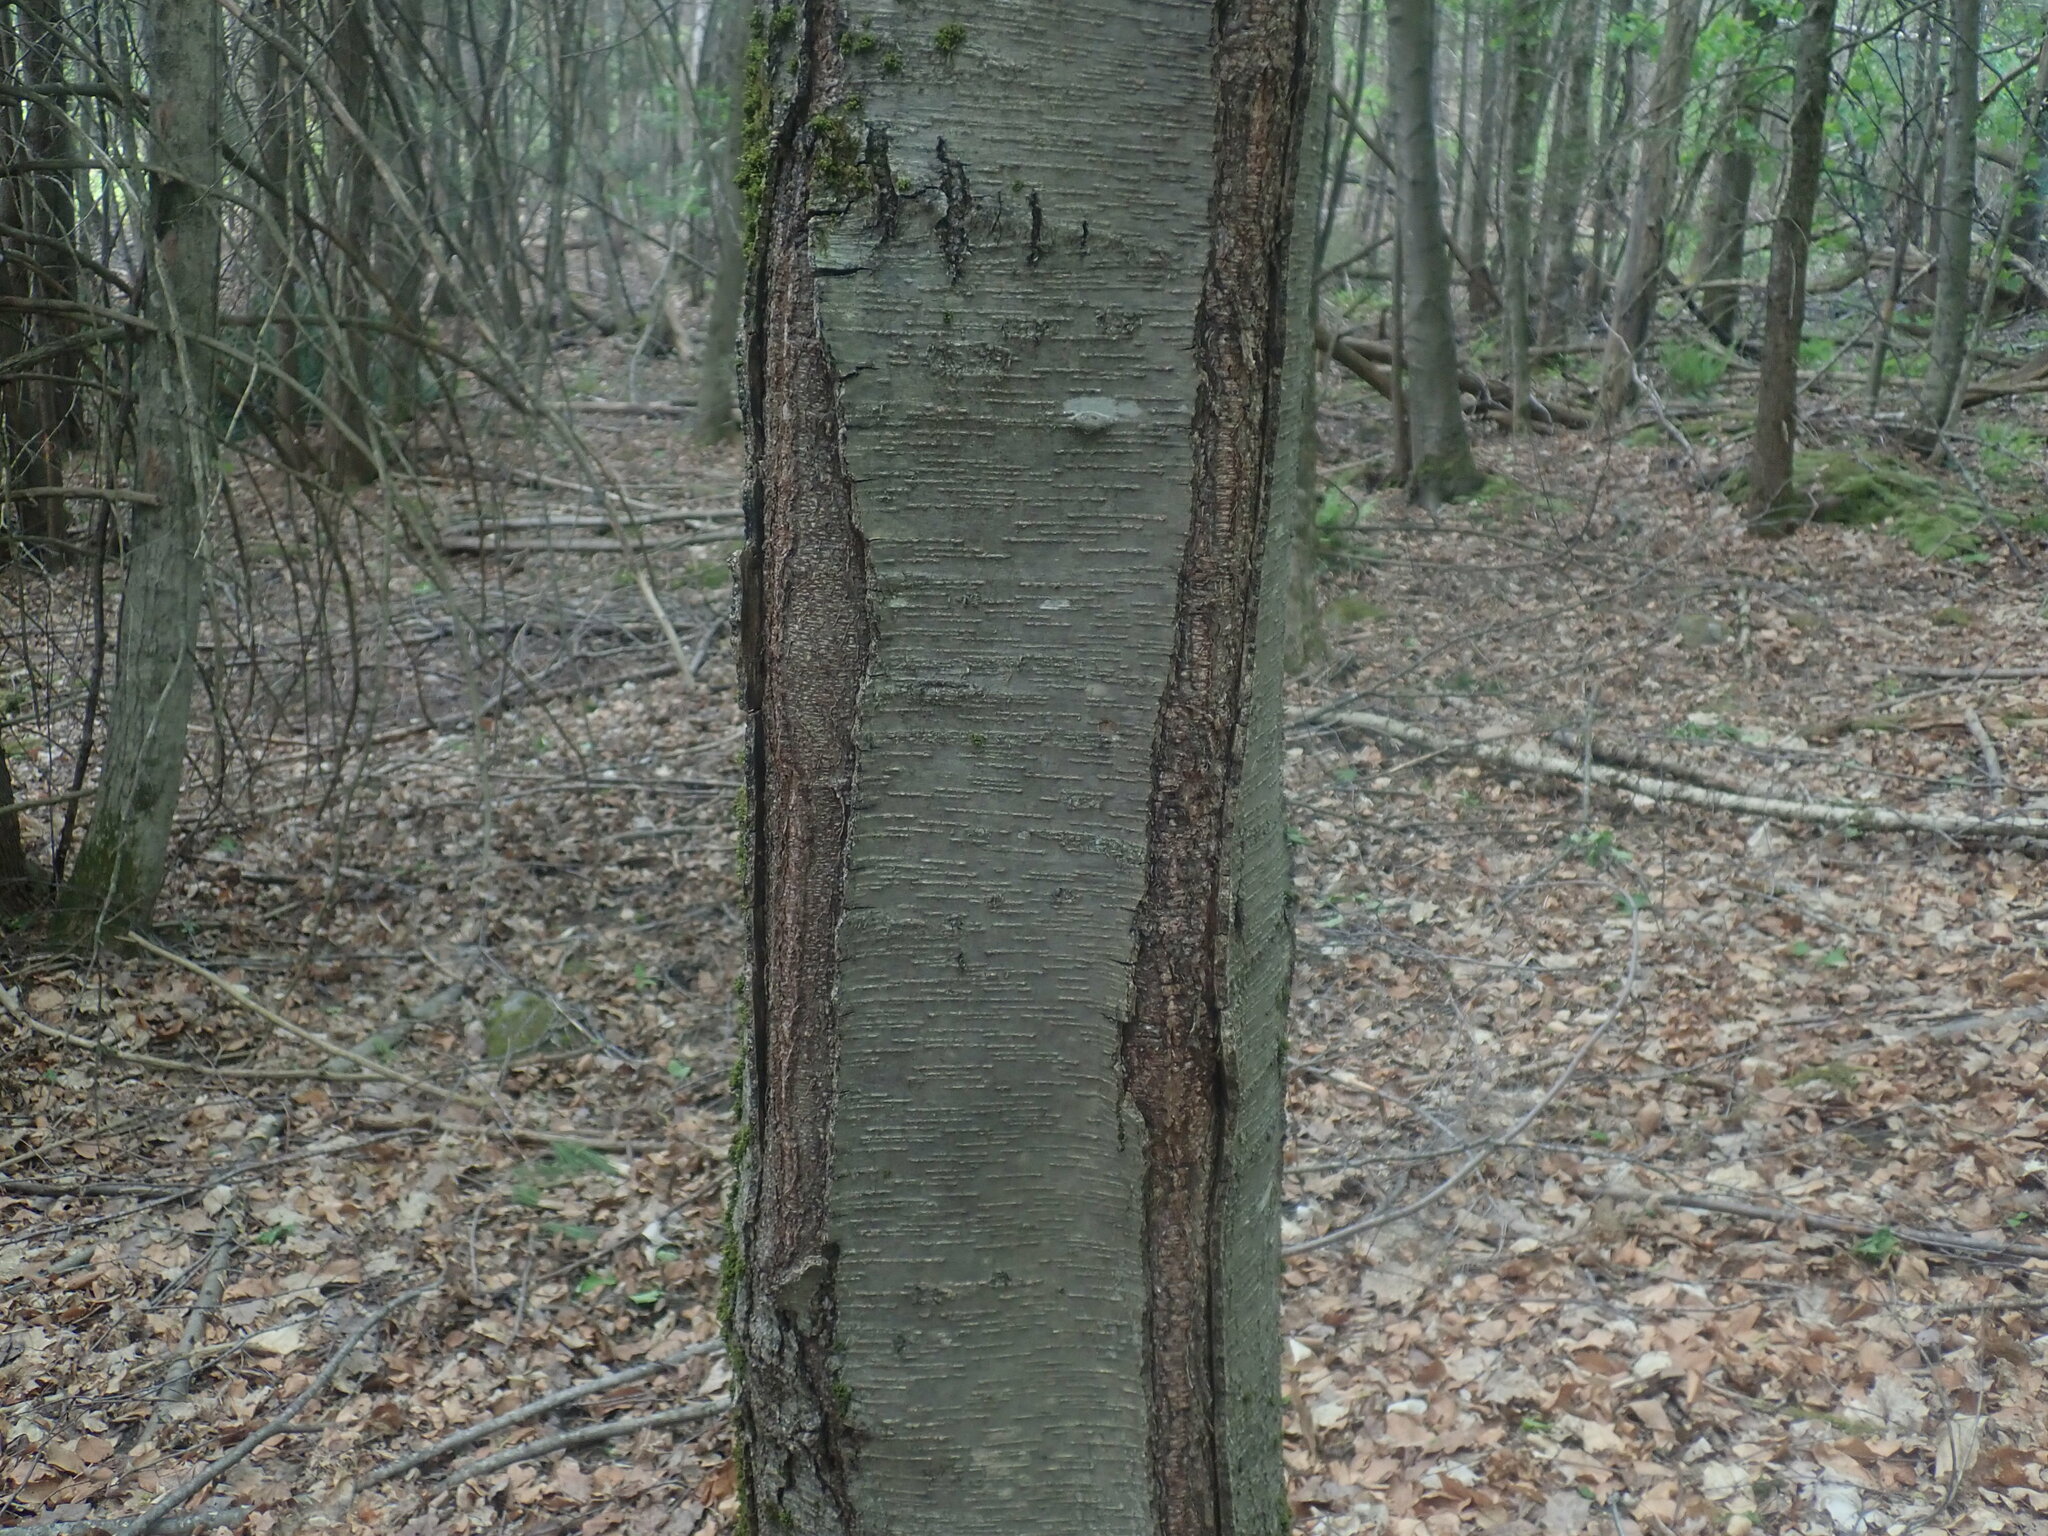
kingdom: Plantae
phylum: Tracheophyta
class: Magnoliopsida
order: Fagales
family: Betulaceae
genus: Betula
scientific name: Betula lenta
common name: Black birch
